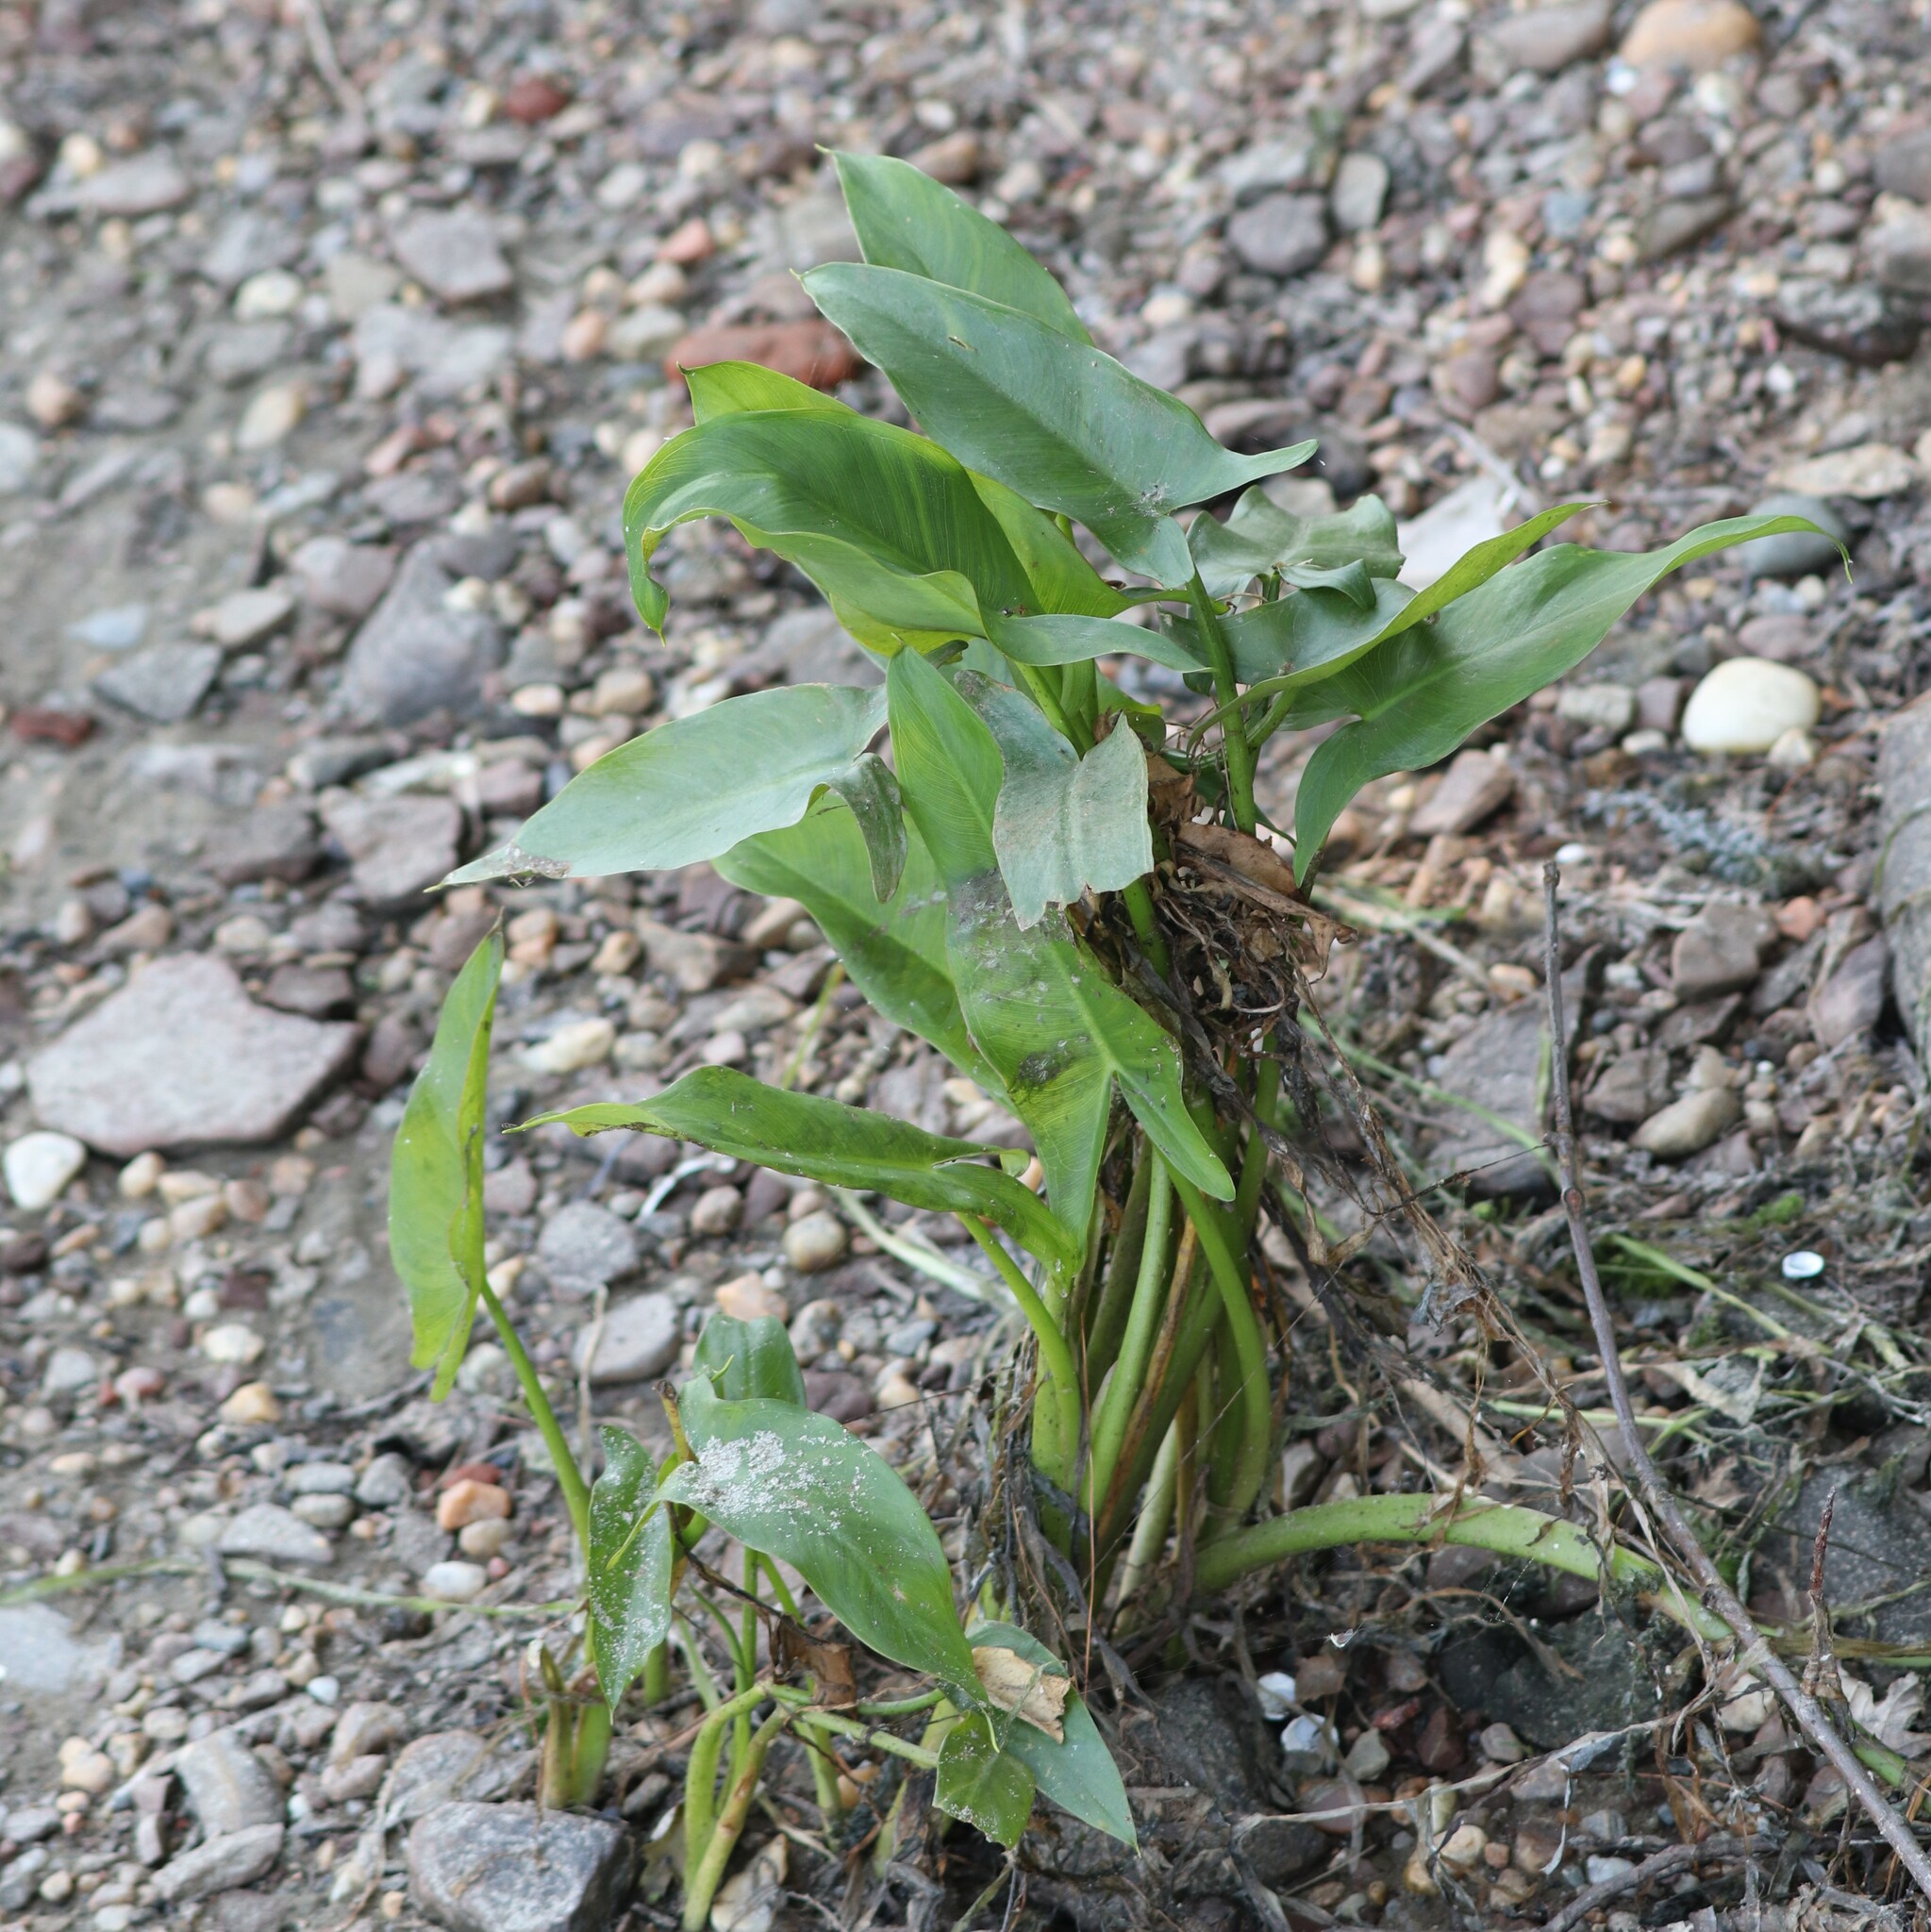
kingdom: Plantae
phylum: Tracheophyta
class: Liliopsida
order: Alismatales
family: Araceae
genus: Peltandra
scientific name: Peltandra virginica
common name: Arrow arum
